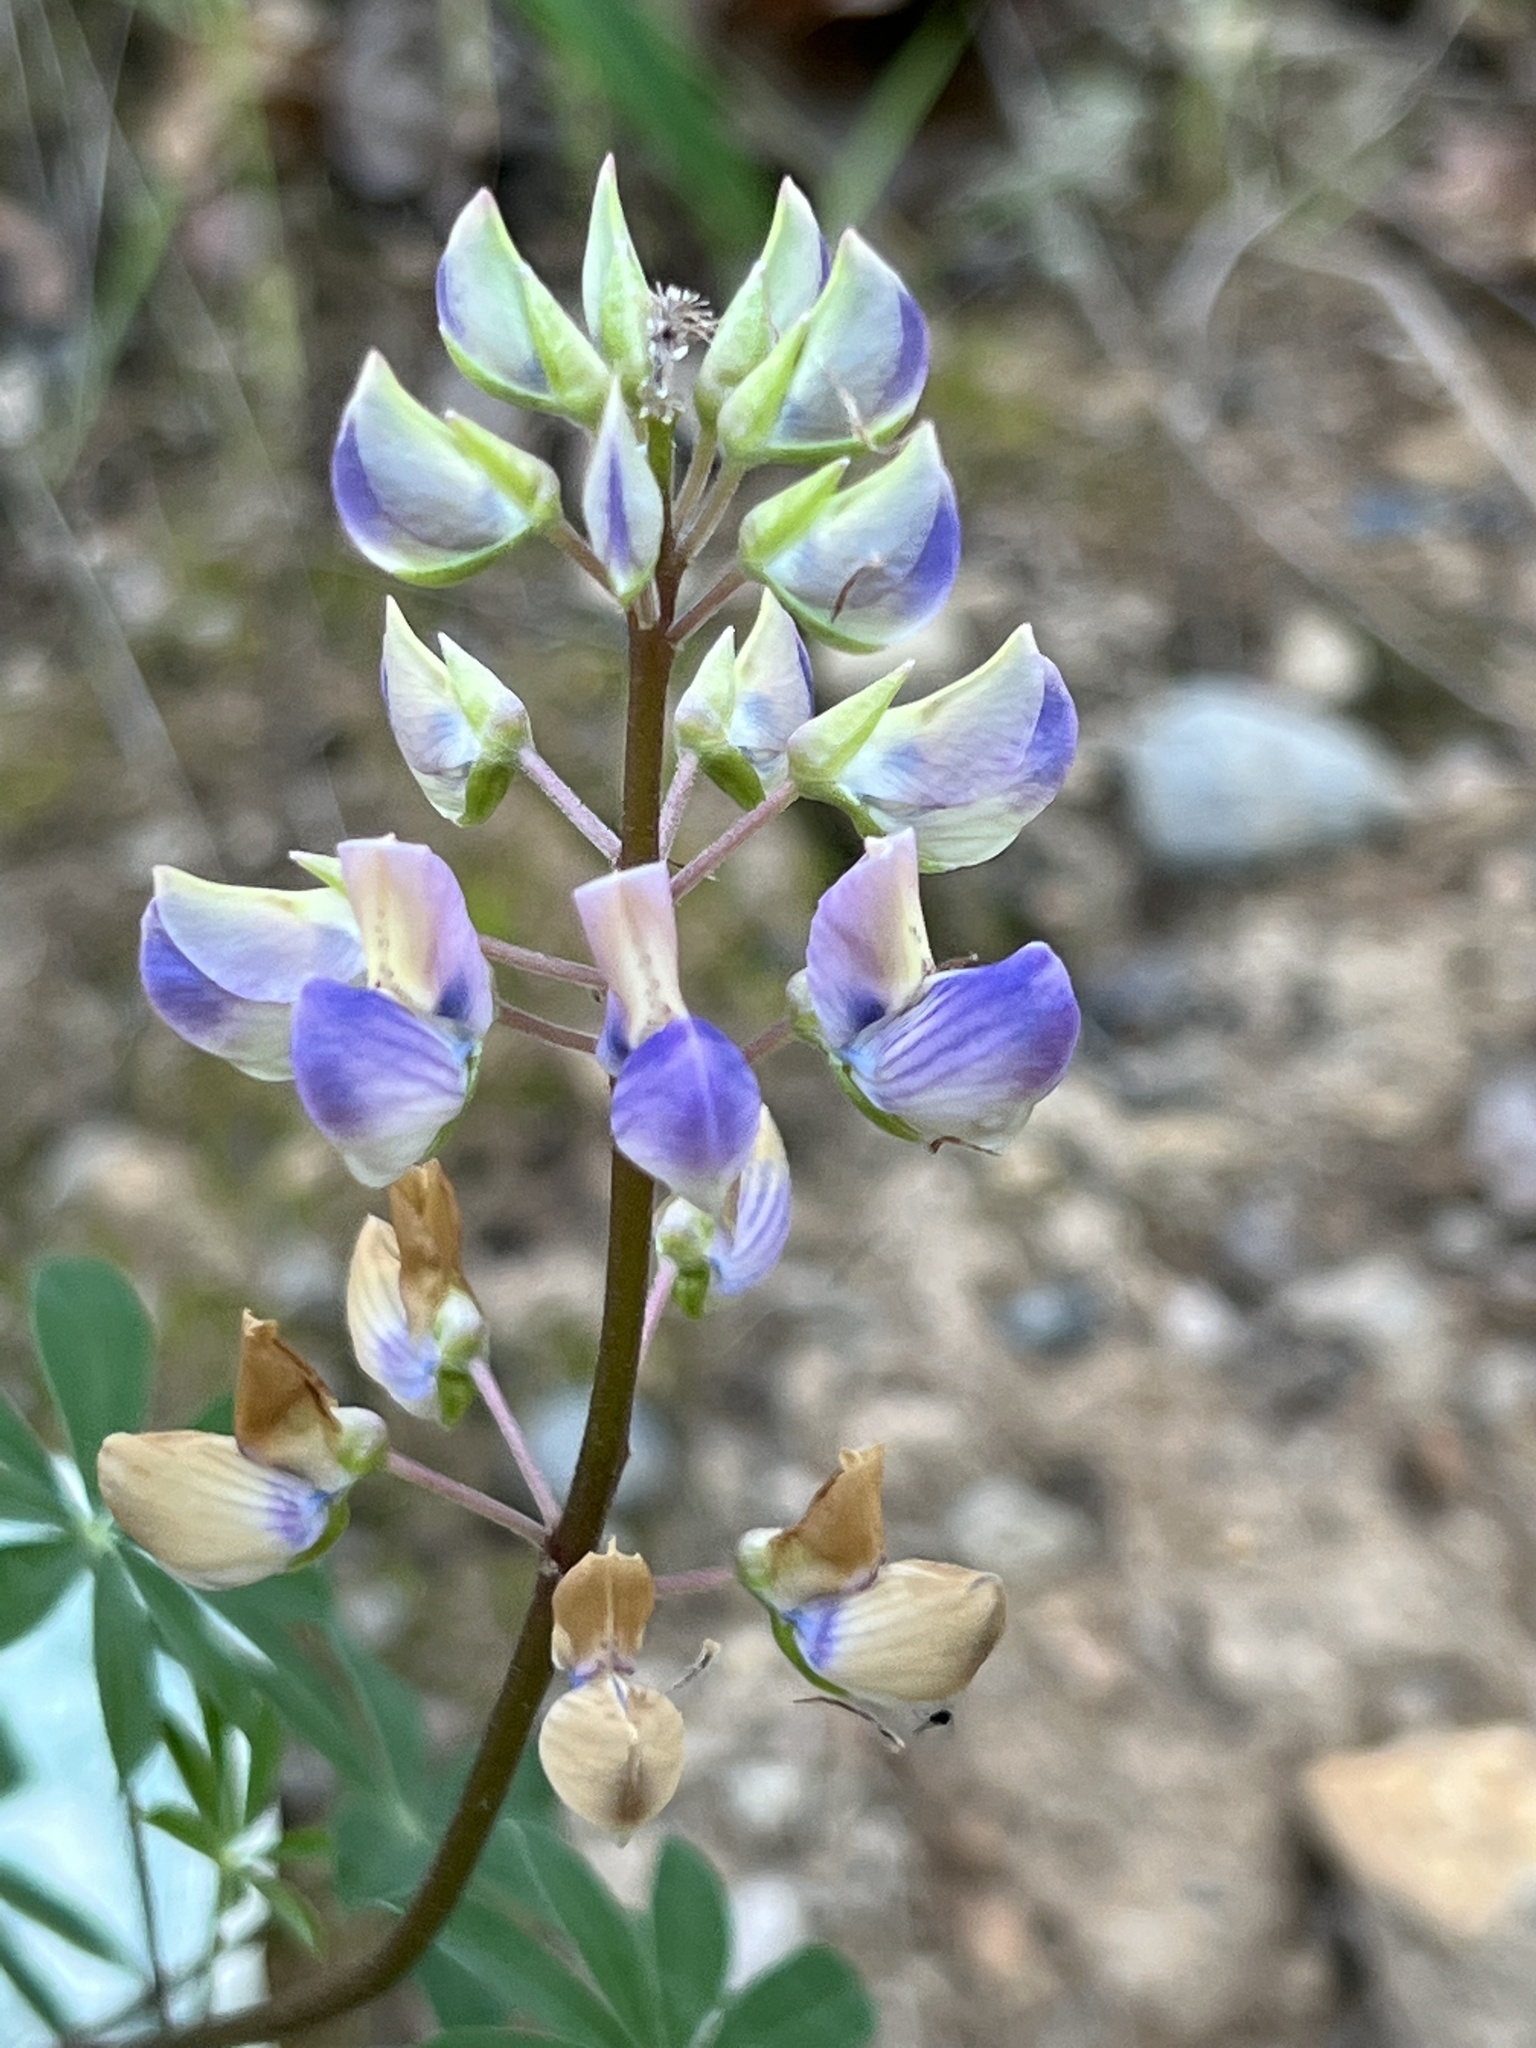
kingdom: Plantae
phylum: Tracheophyta
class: Magnoliopsida
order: Fabales
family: Fabaceae
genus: Lupinus
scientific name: Lupinus latifolius
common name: Broad-leaved lupine
